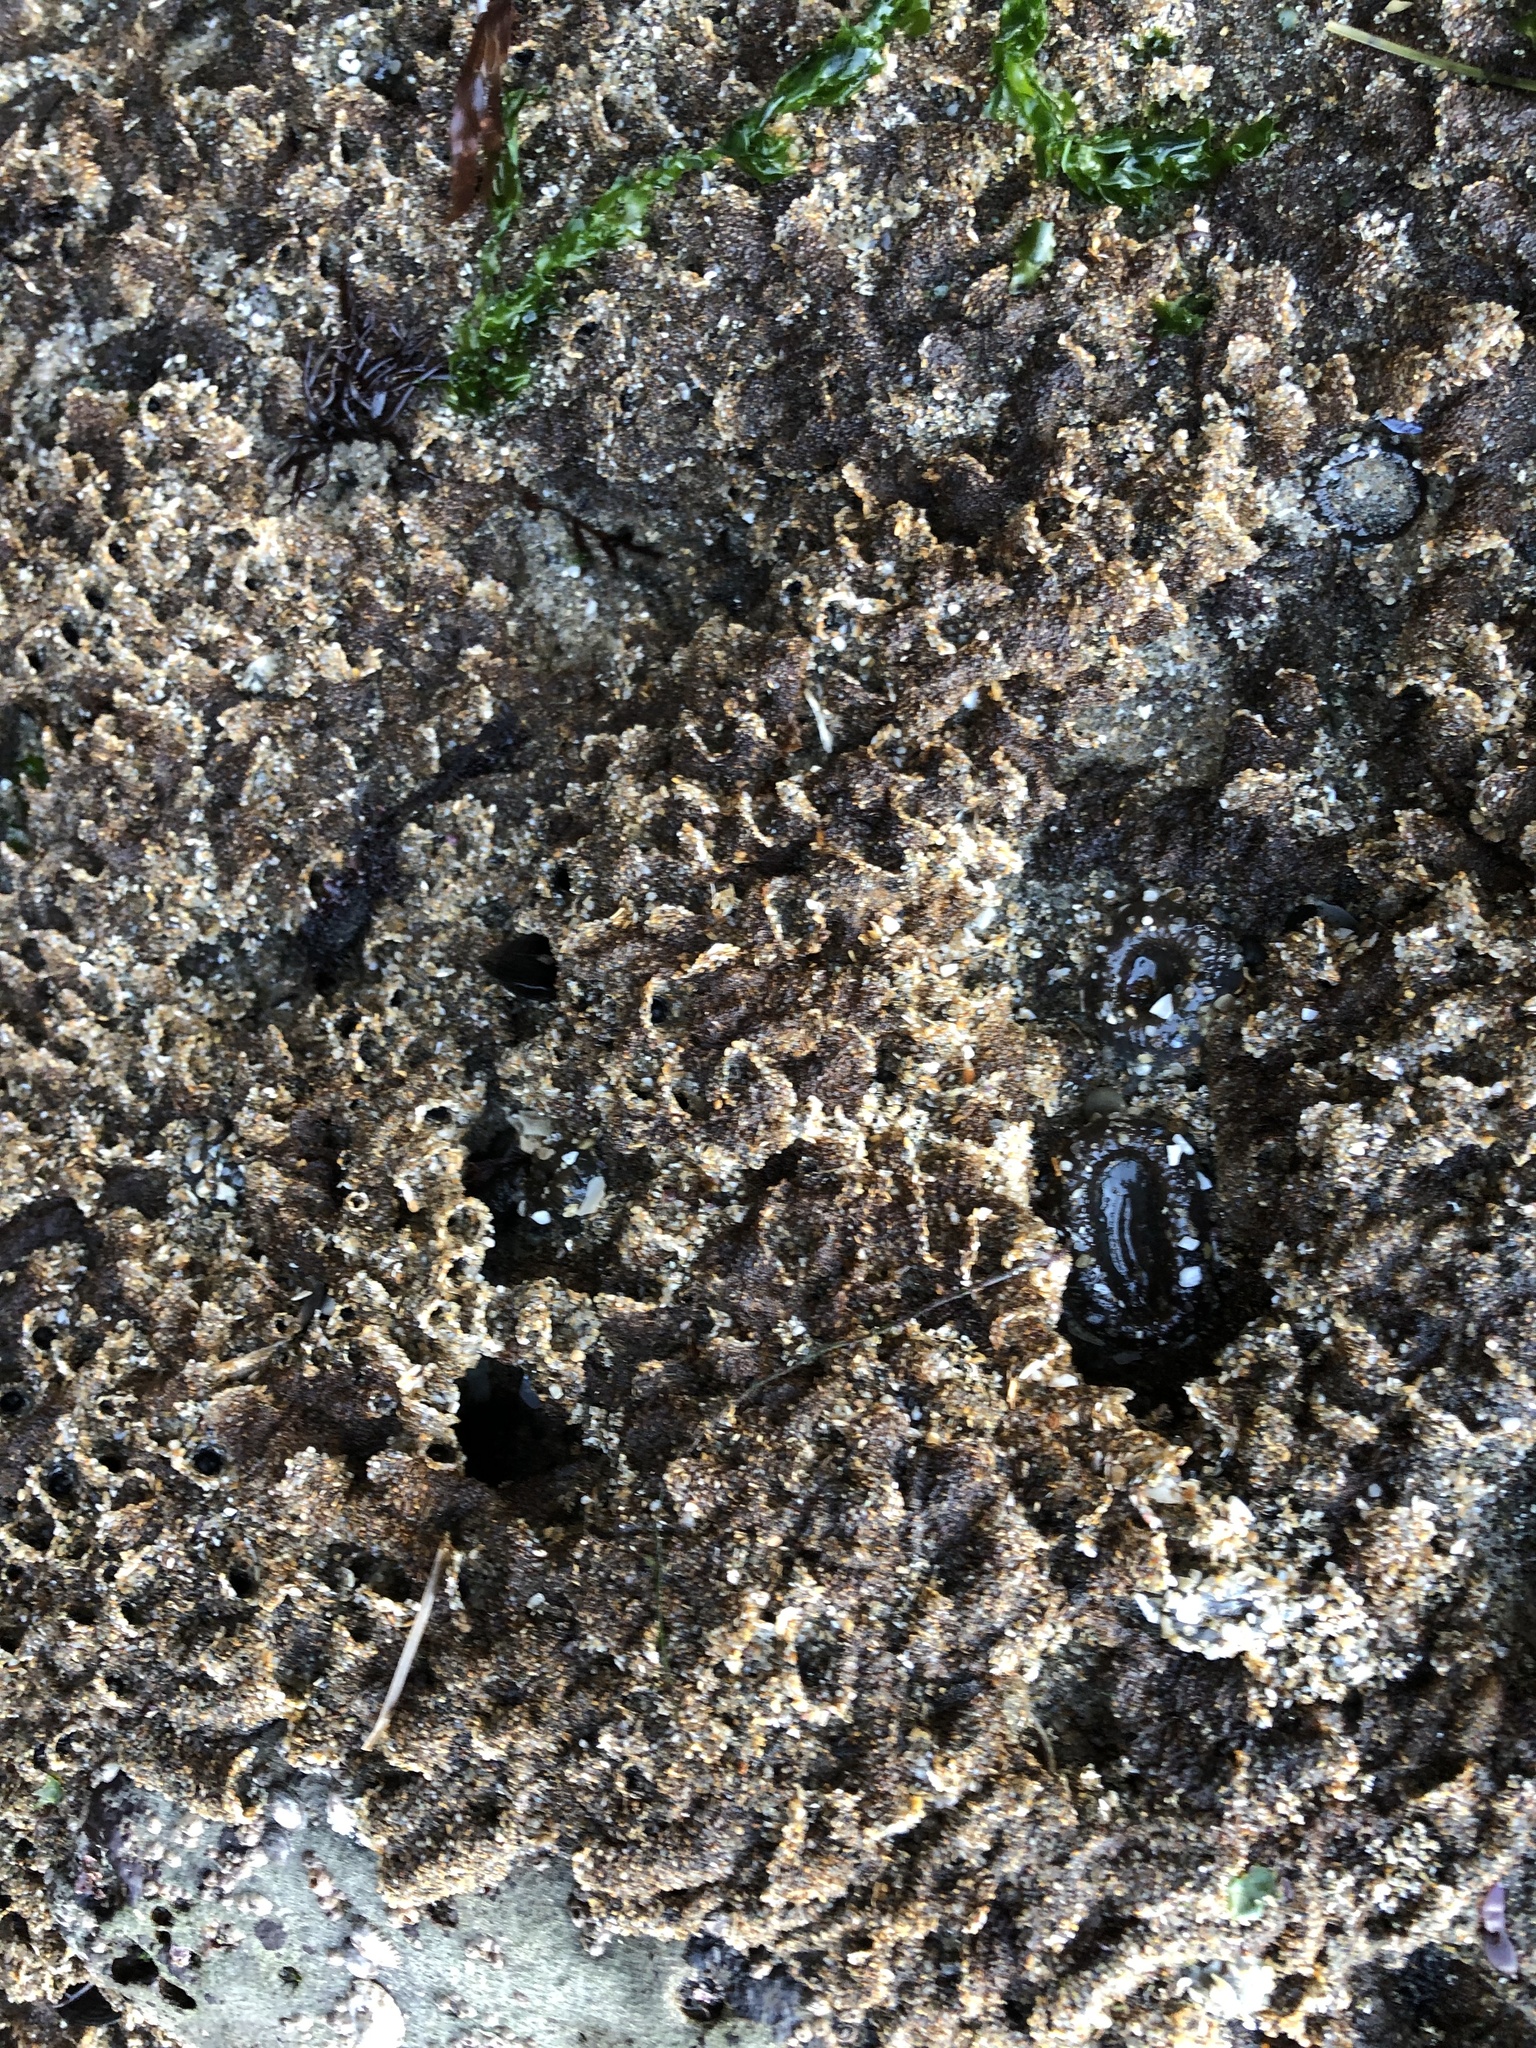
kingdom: Animalia
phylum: Annelida
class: Polychaeta
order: Sabellida
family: Sabellariidae
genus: Phragmatopoma
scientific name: Phragmatopoma californica
